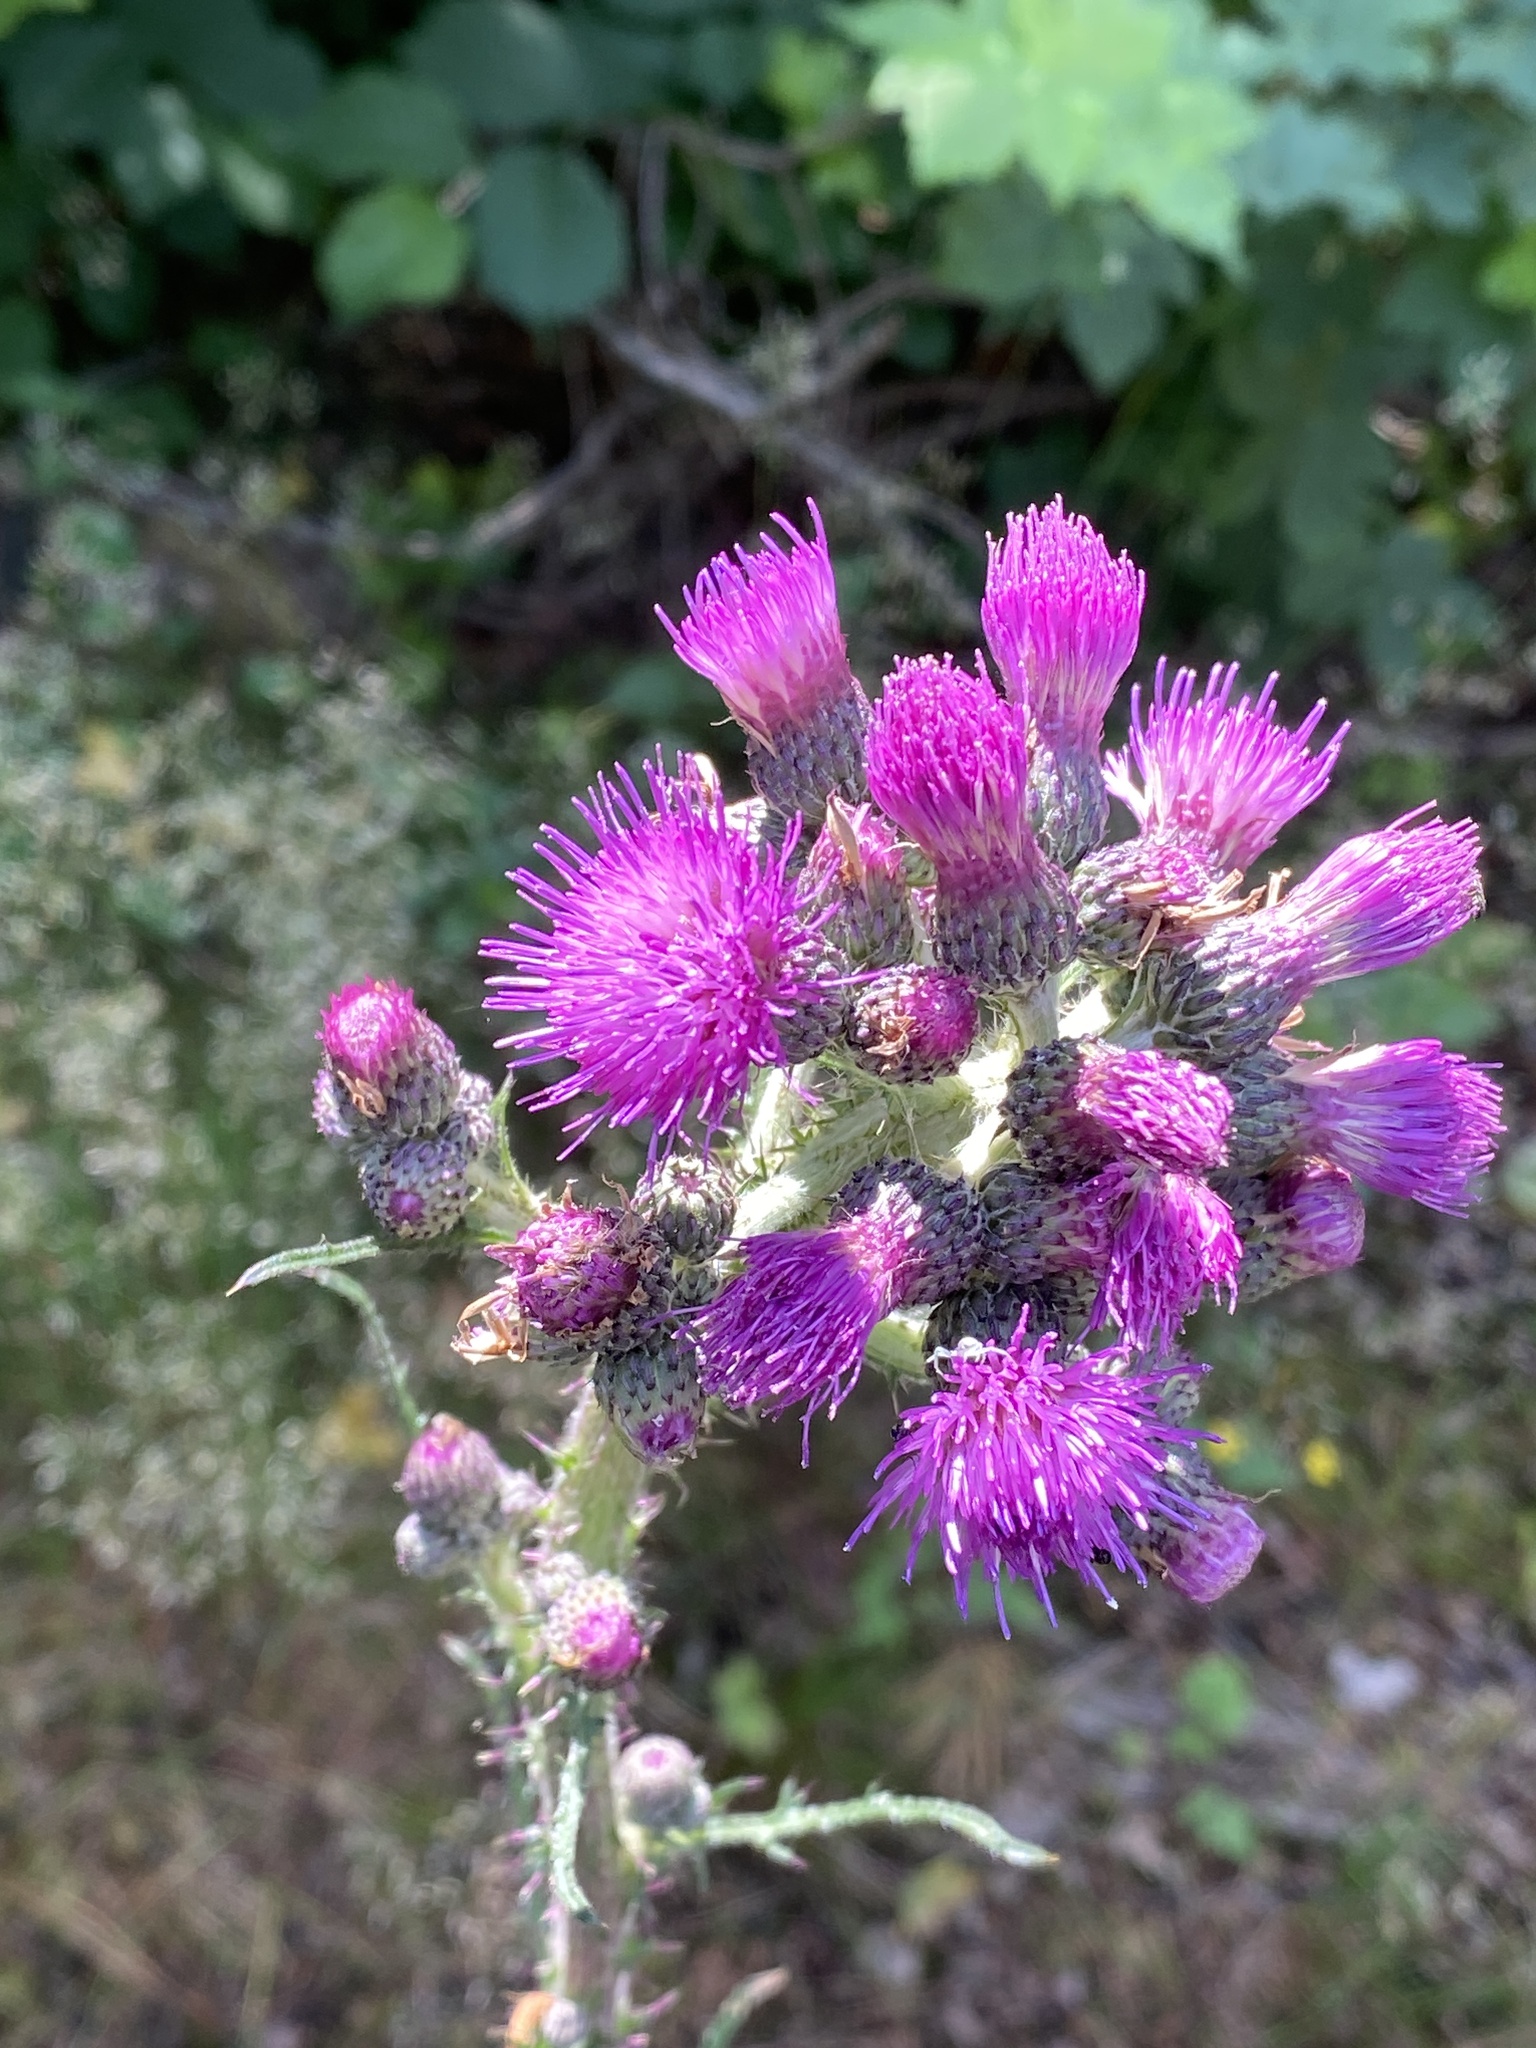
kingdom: Plantae
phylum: Tracheophyta
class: Magnoliopsida
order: Asterales
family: Asteraceae
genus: Cirsium
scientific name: Cirsium palustre
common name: Marsh thistle
